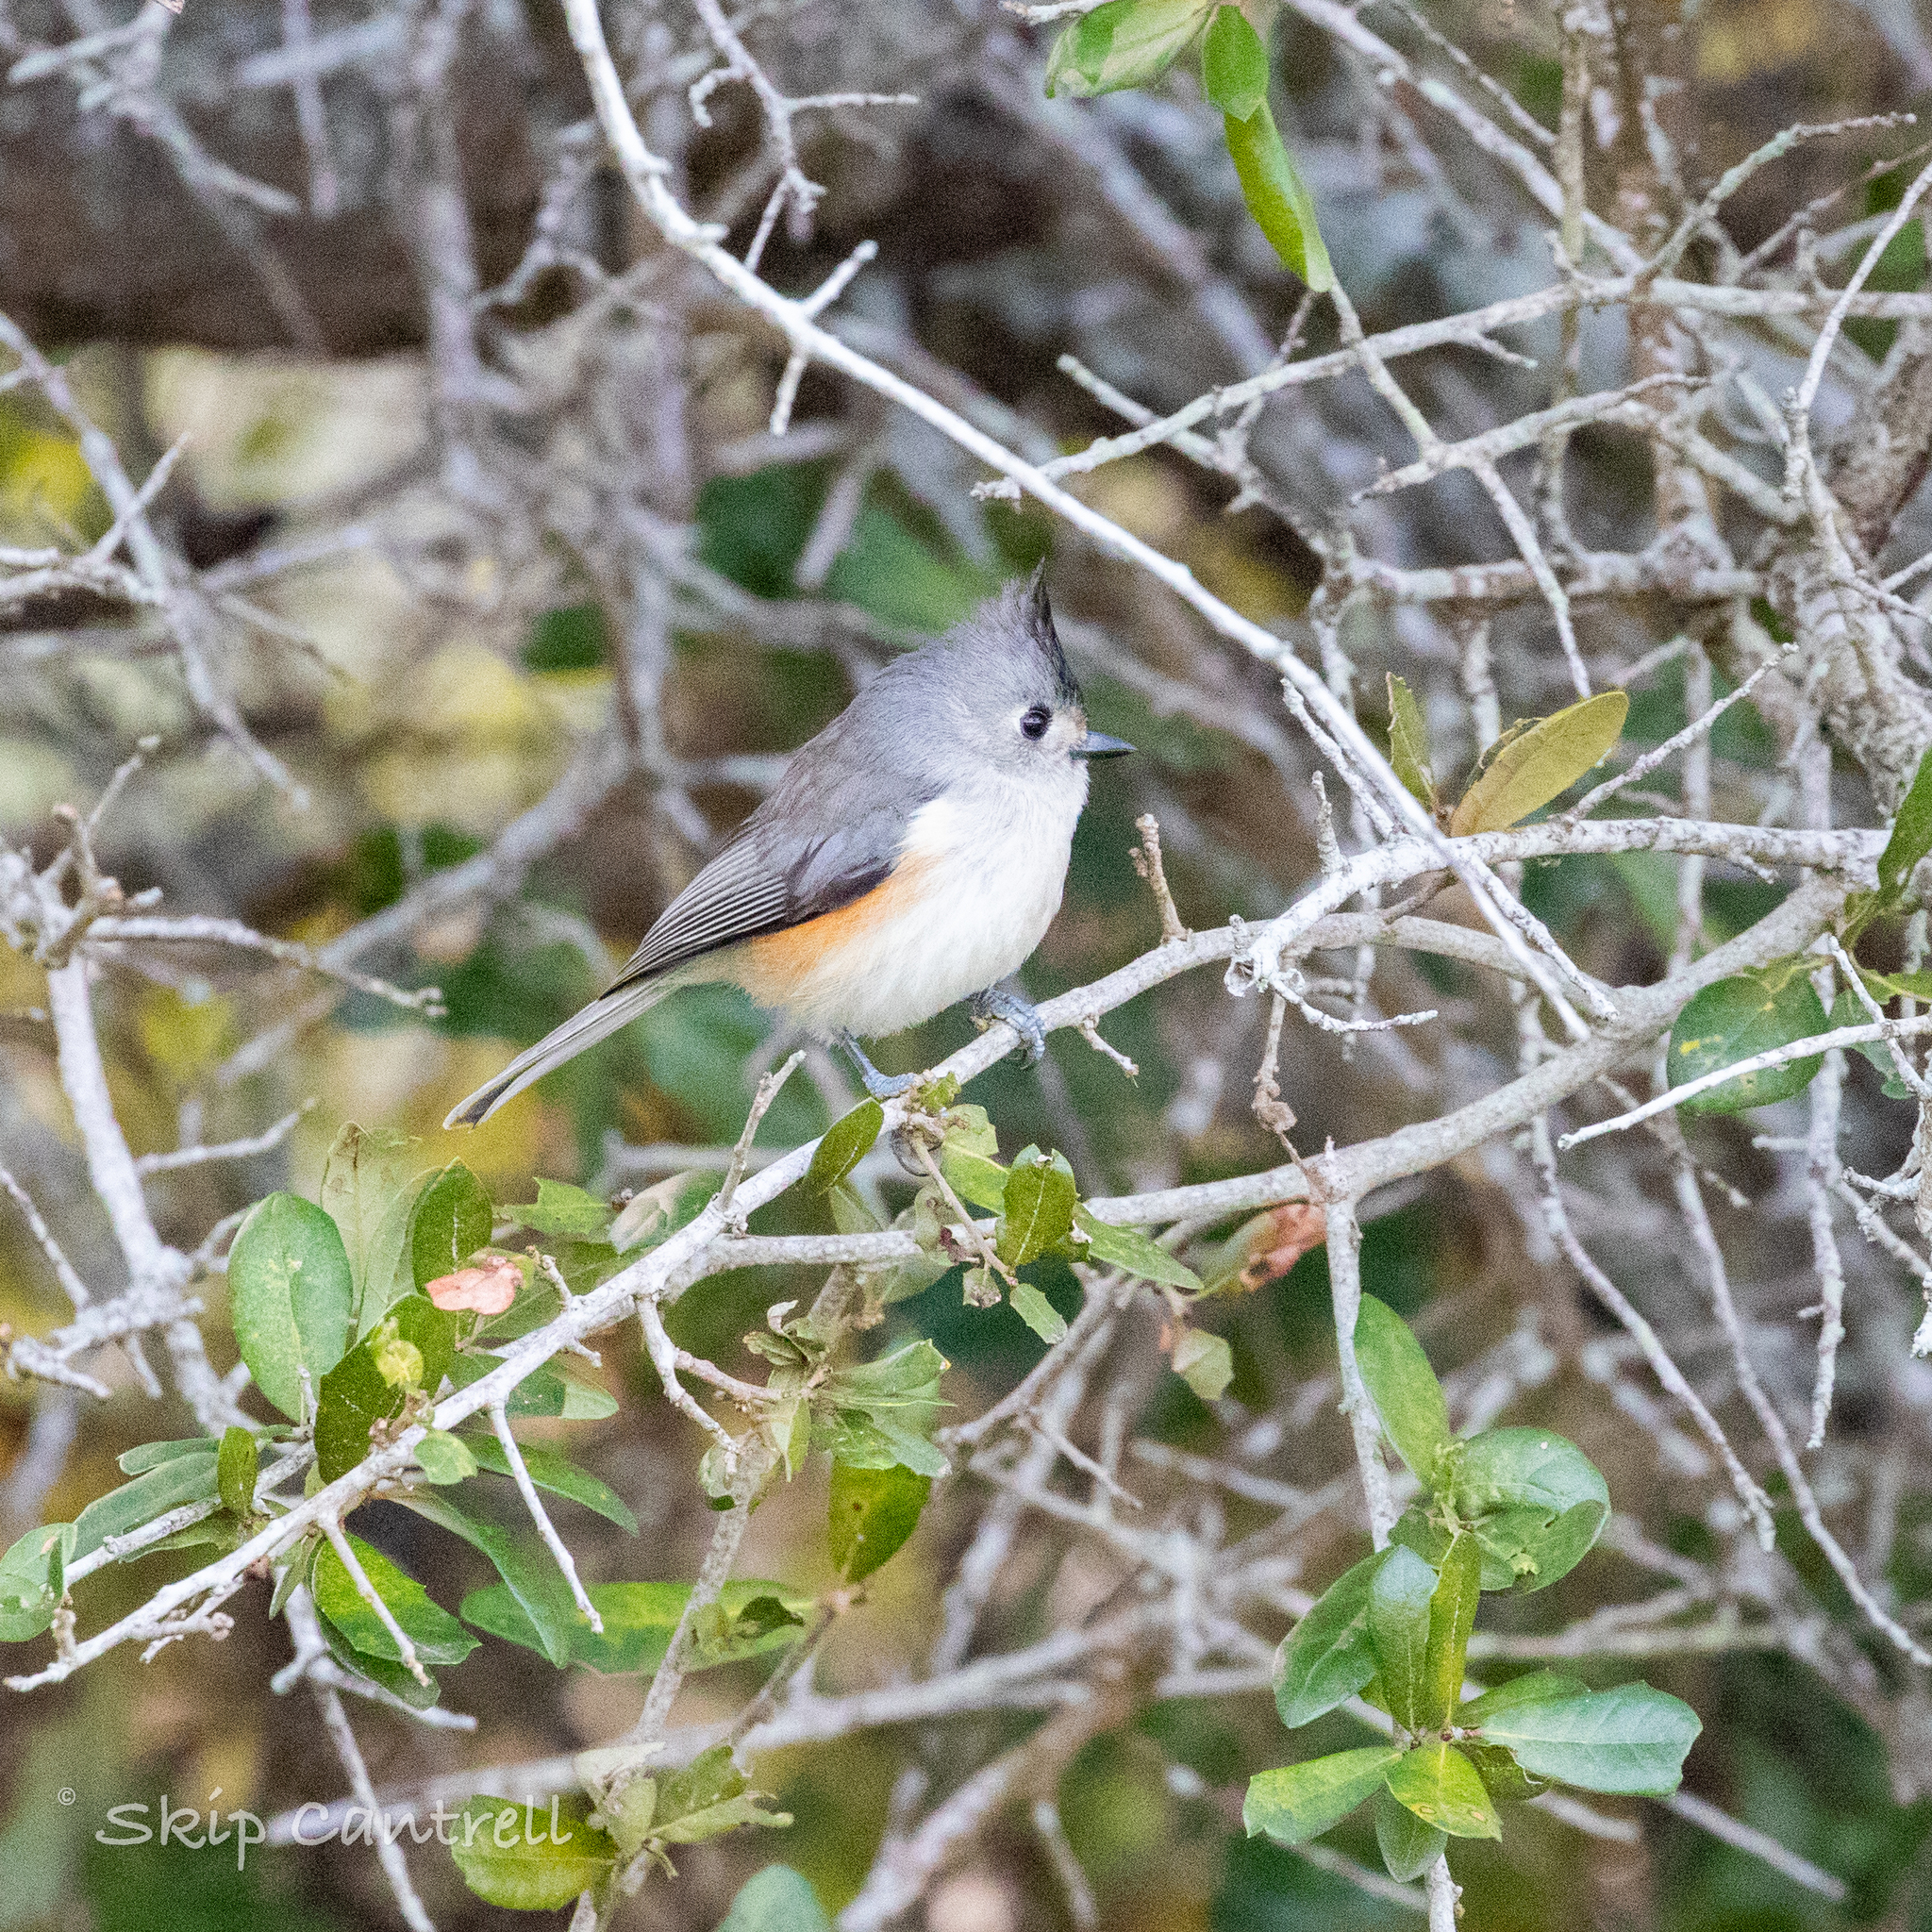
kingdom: Animalia
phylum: Chordata
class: Aves
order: Passeriformes
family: Paridae
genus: Baeolophus
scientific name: Baeolophus atricristatus
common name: Black-crested titmouse
